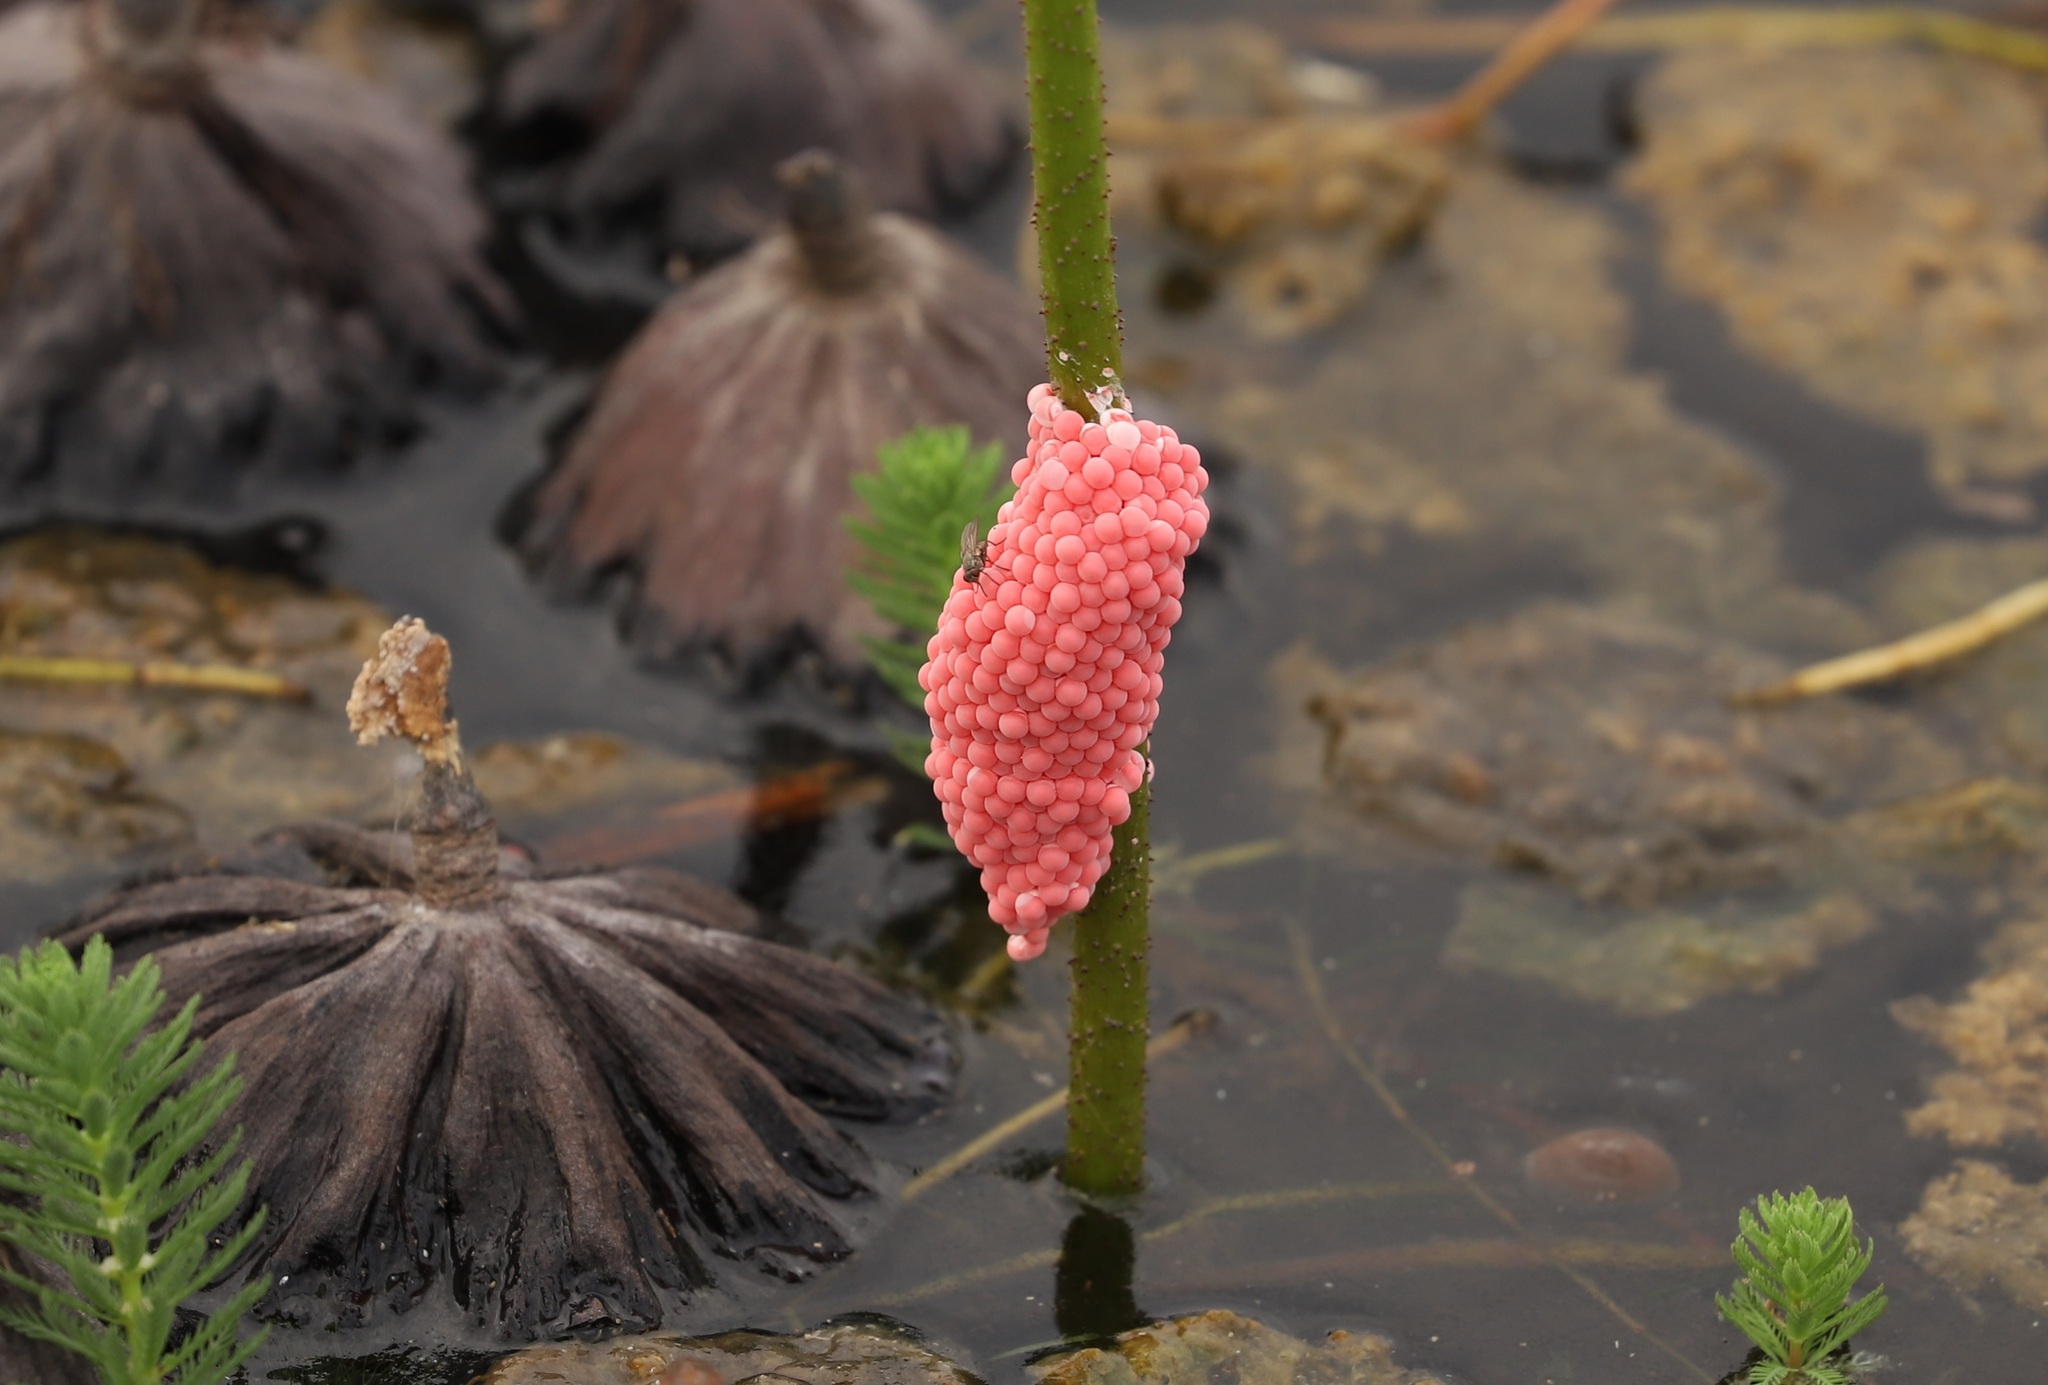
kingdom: Animalia
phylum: Mollusca
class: Gastropoda
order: Architaenioglossa
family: Ampullariidae
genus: Pomacea
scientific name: Pomacea canaliculata
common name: Channeled applesnail
